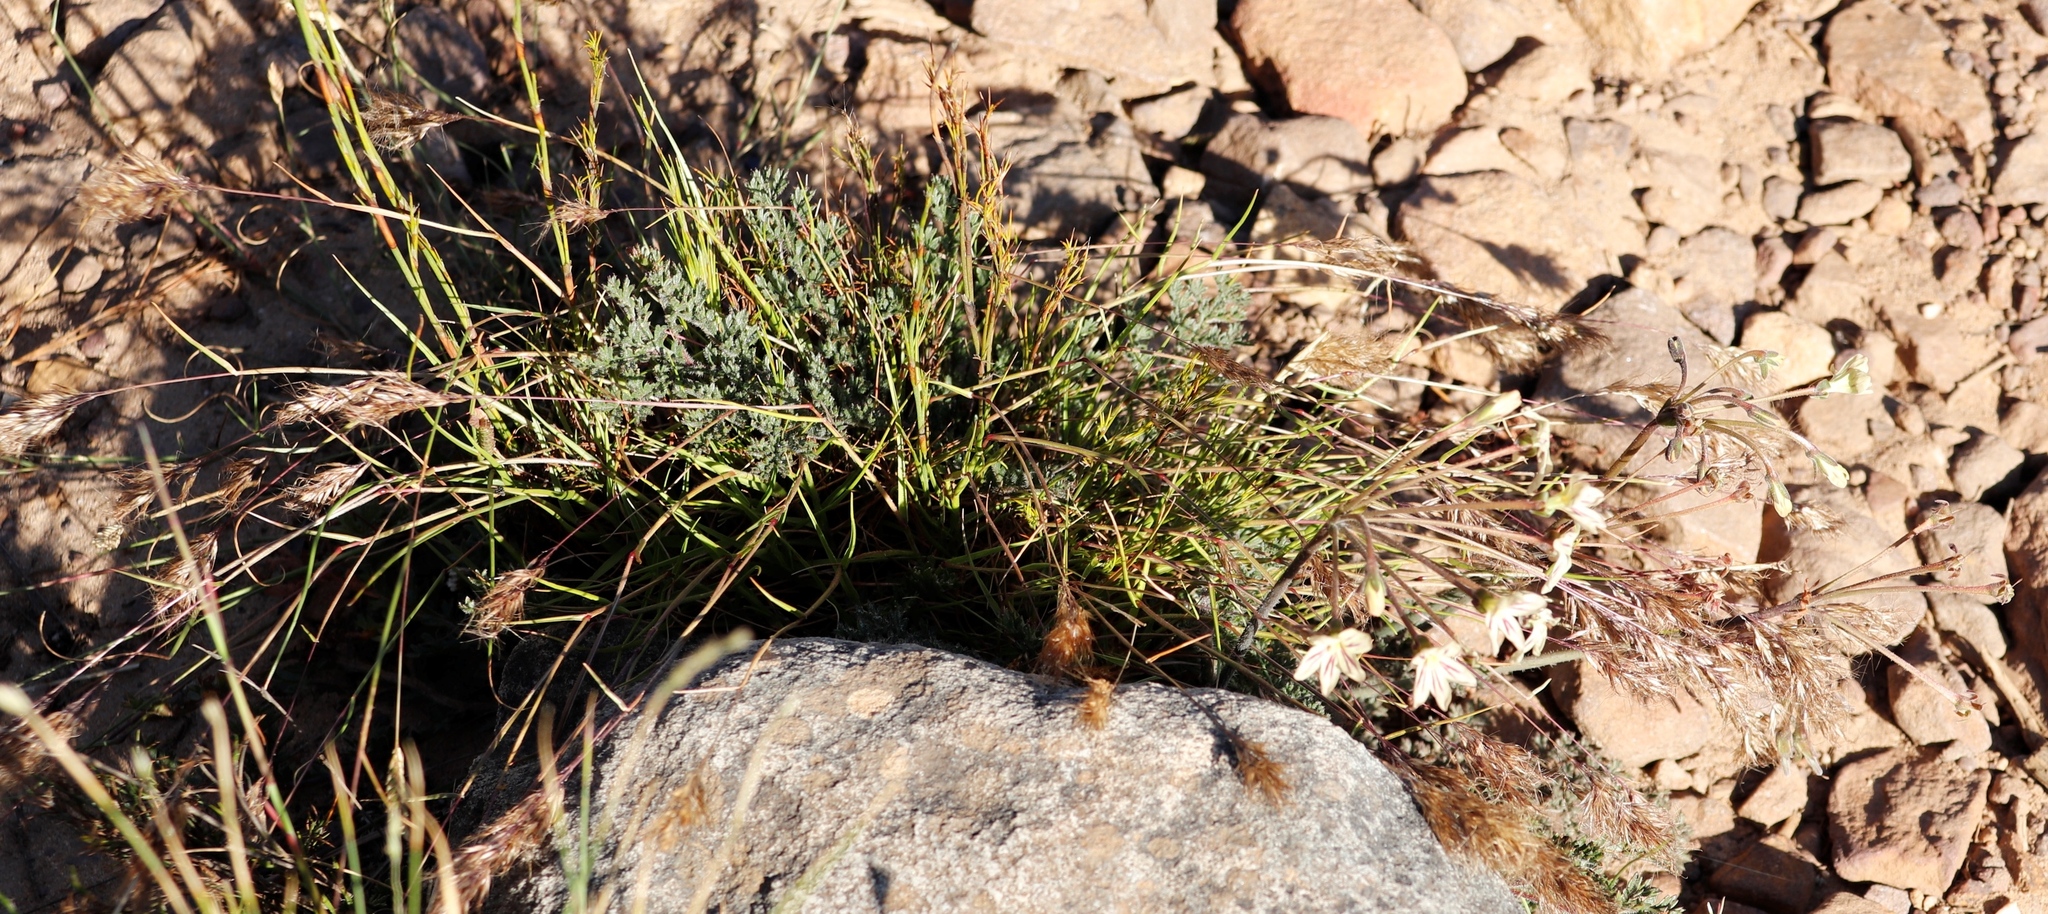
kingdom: Plantae
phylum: Tracheophyta
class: Magnoliopsida
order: Geraniales
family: Geraniaceae
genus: Pelargonium
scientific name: Pelargonium triste
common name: Night-scent pelargonium
